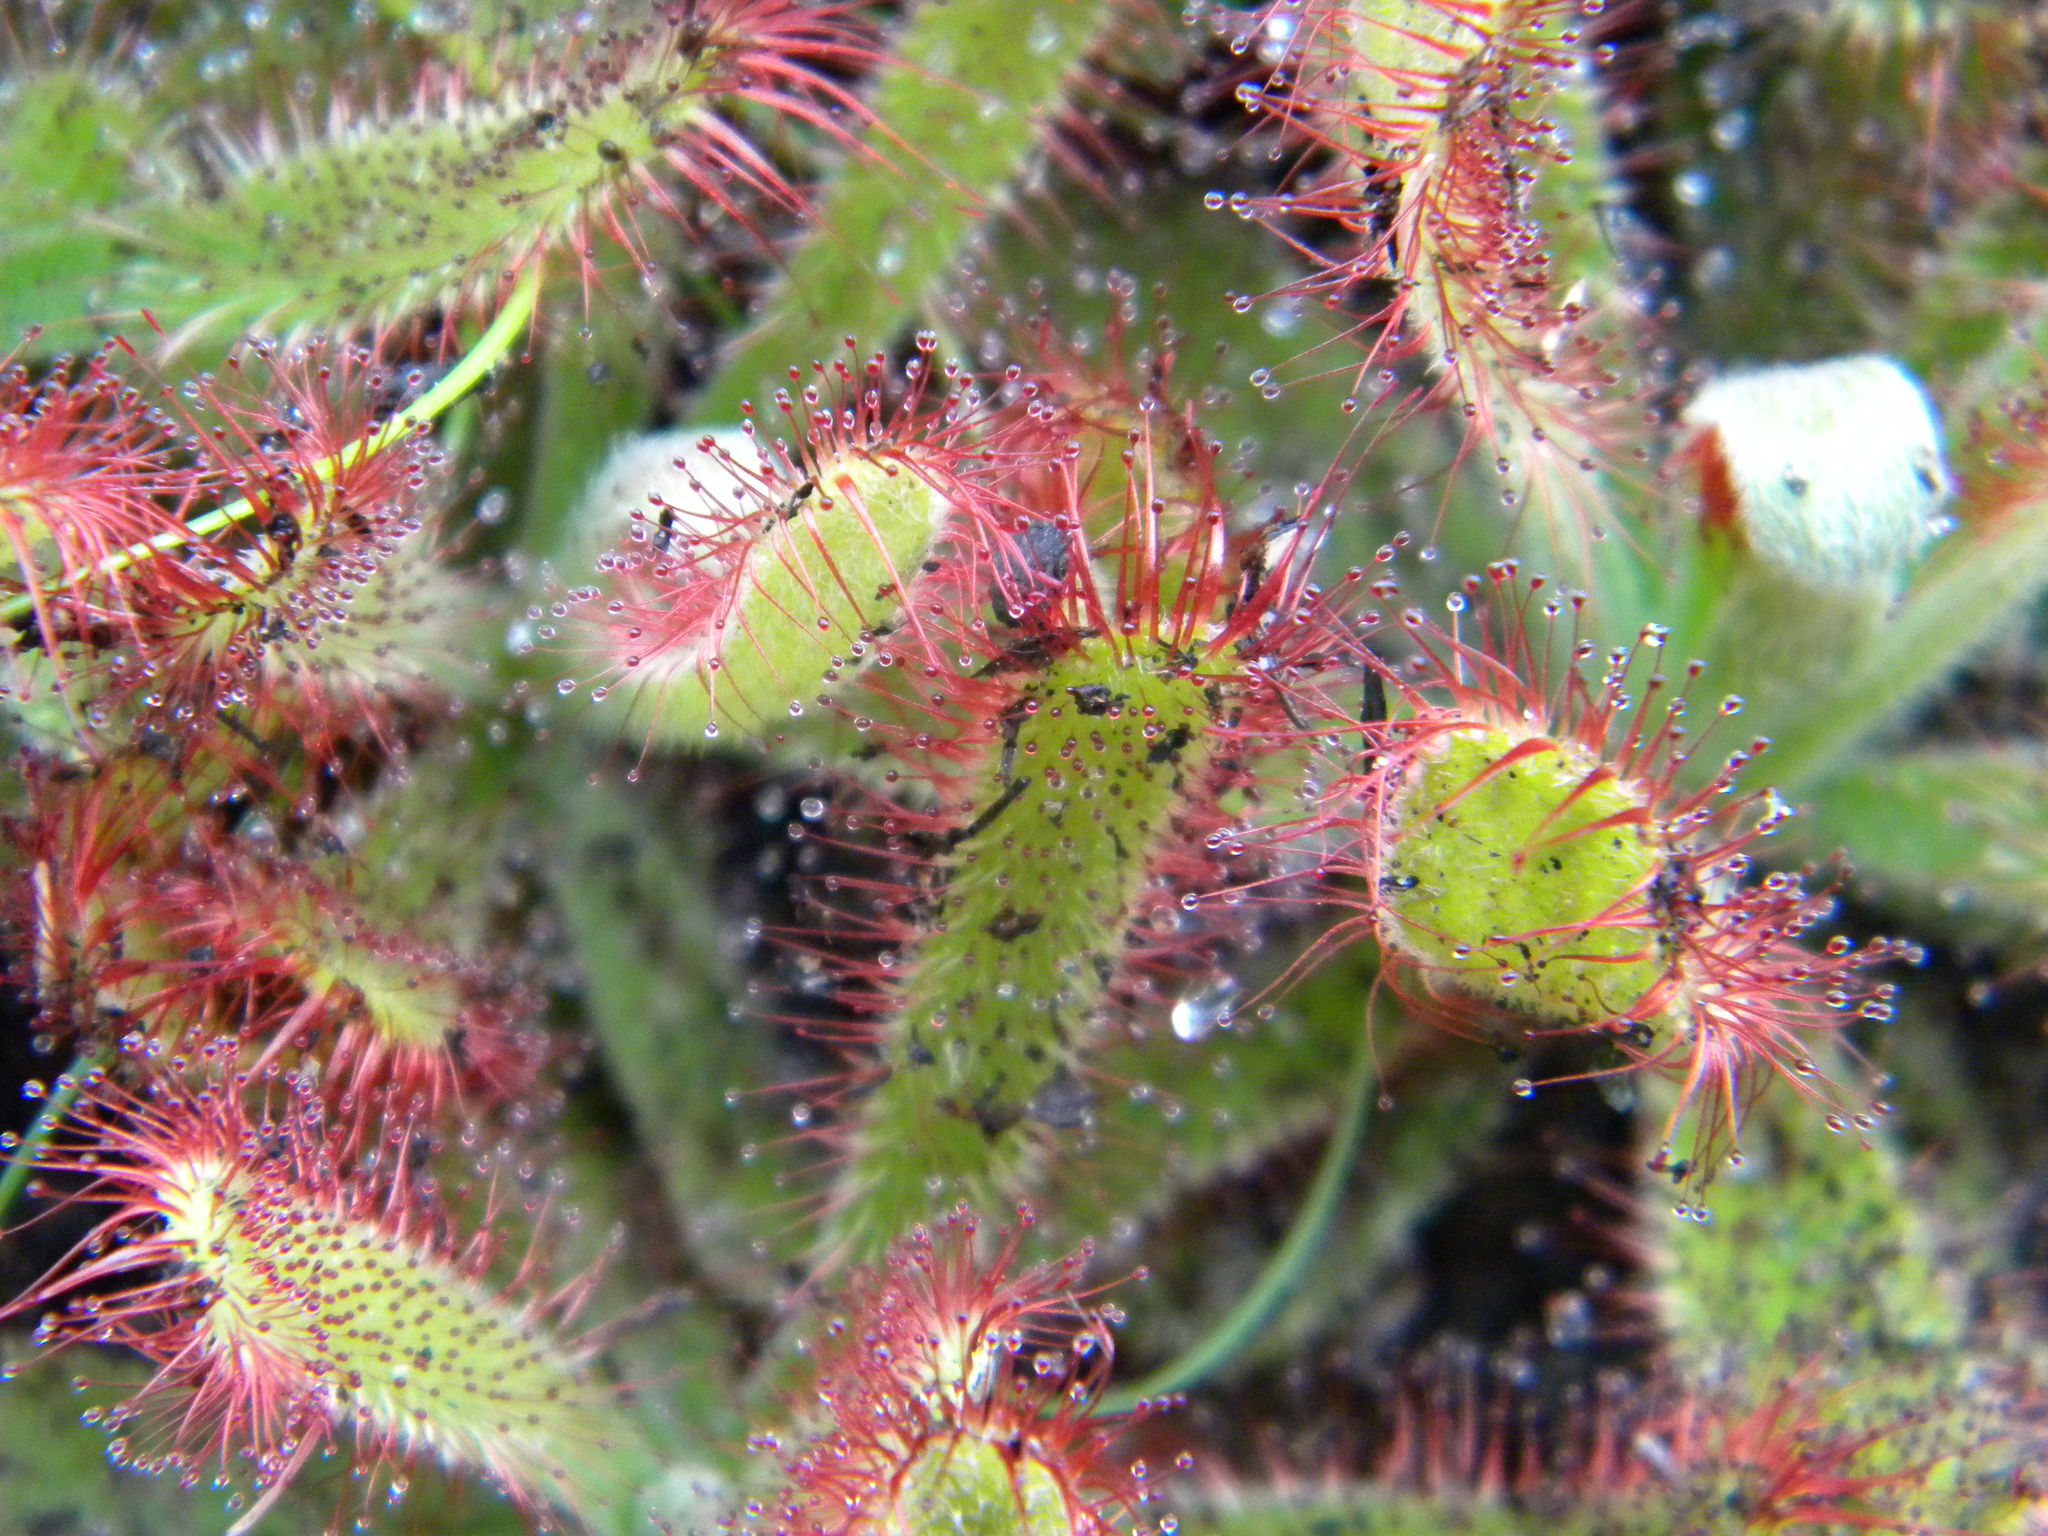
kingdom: Plantae
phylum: Tracheophyta
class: Magnoliopsida
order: Caryophyllales
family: Droseraceae
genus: Drosera
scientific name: Drosera ericgreenii
